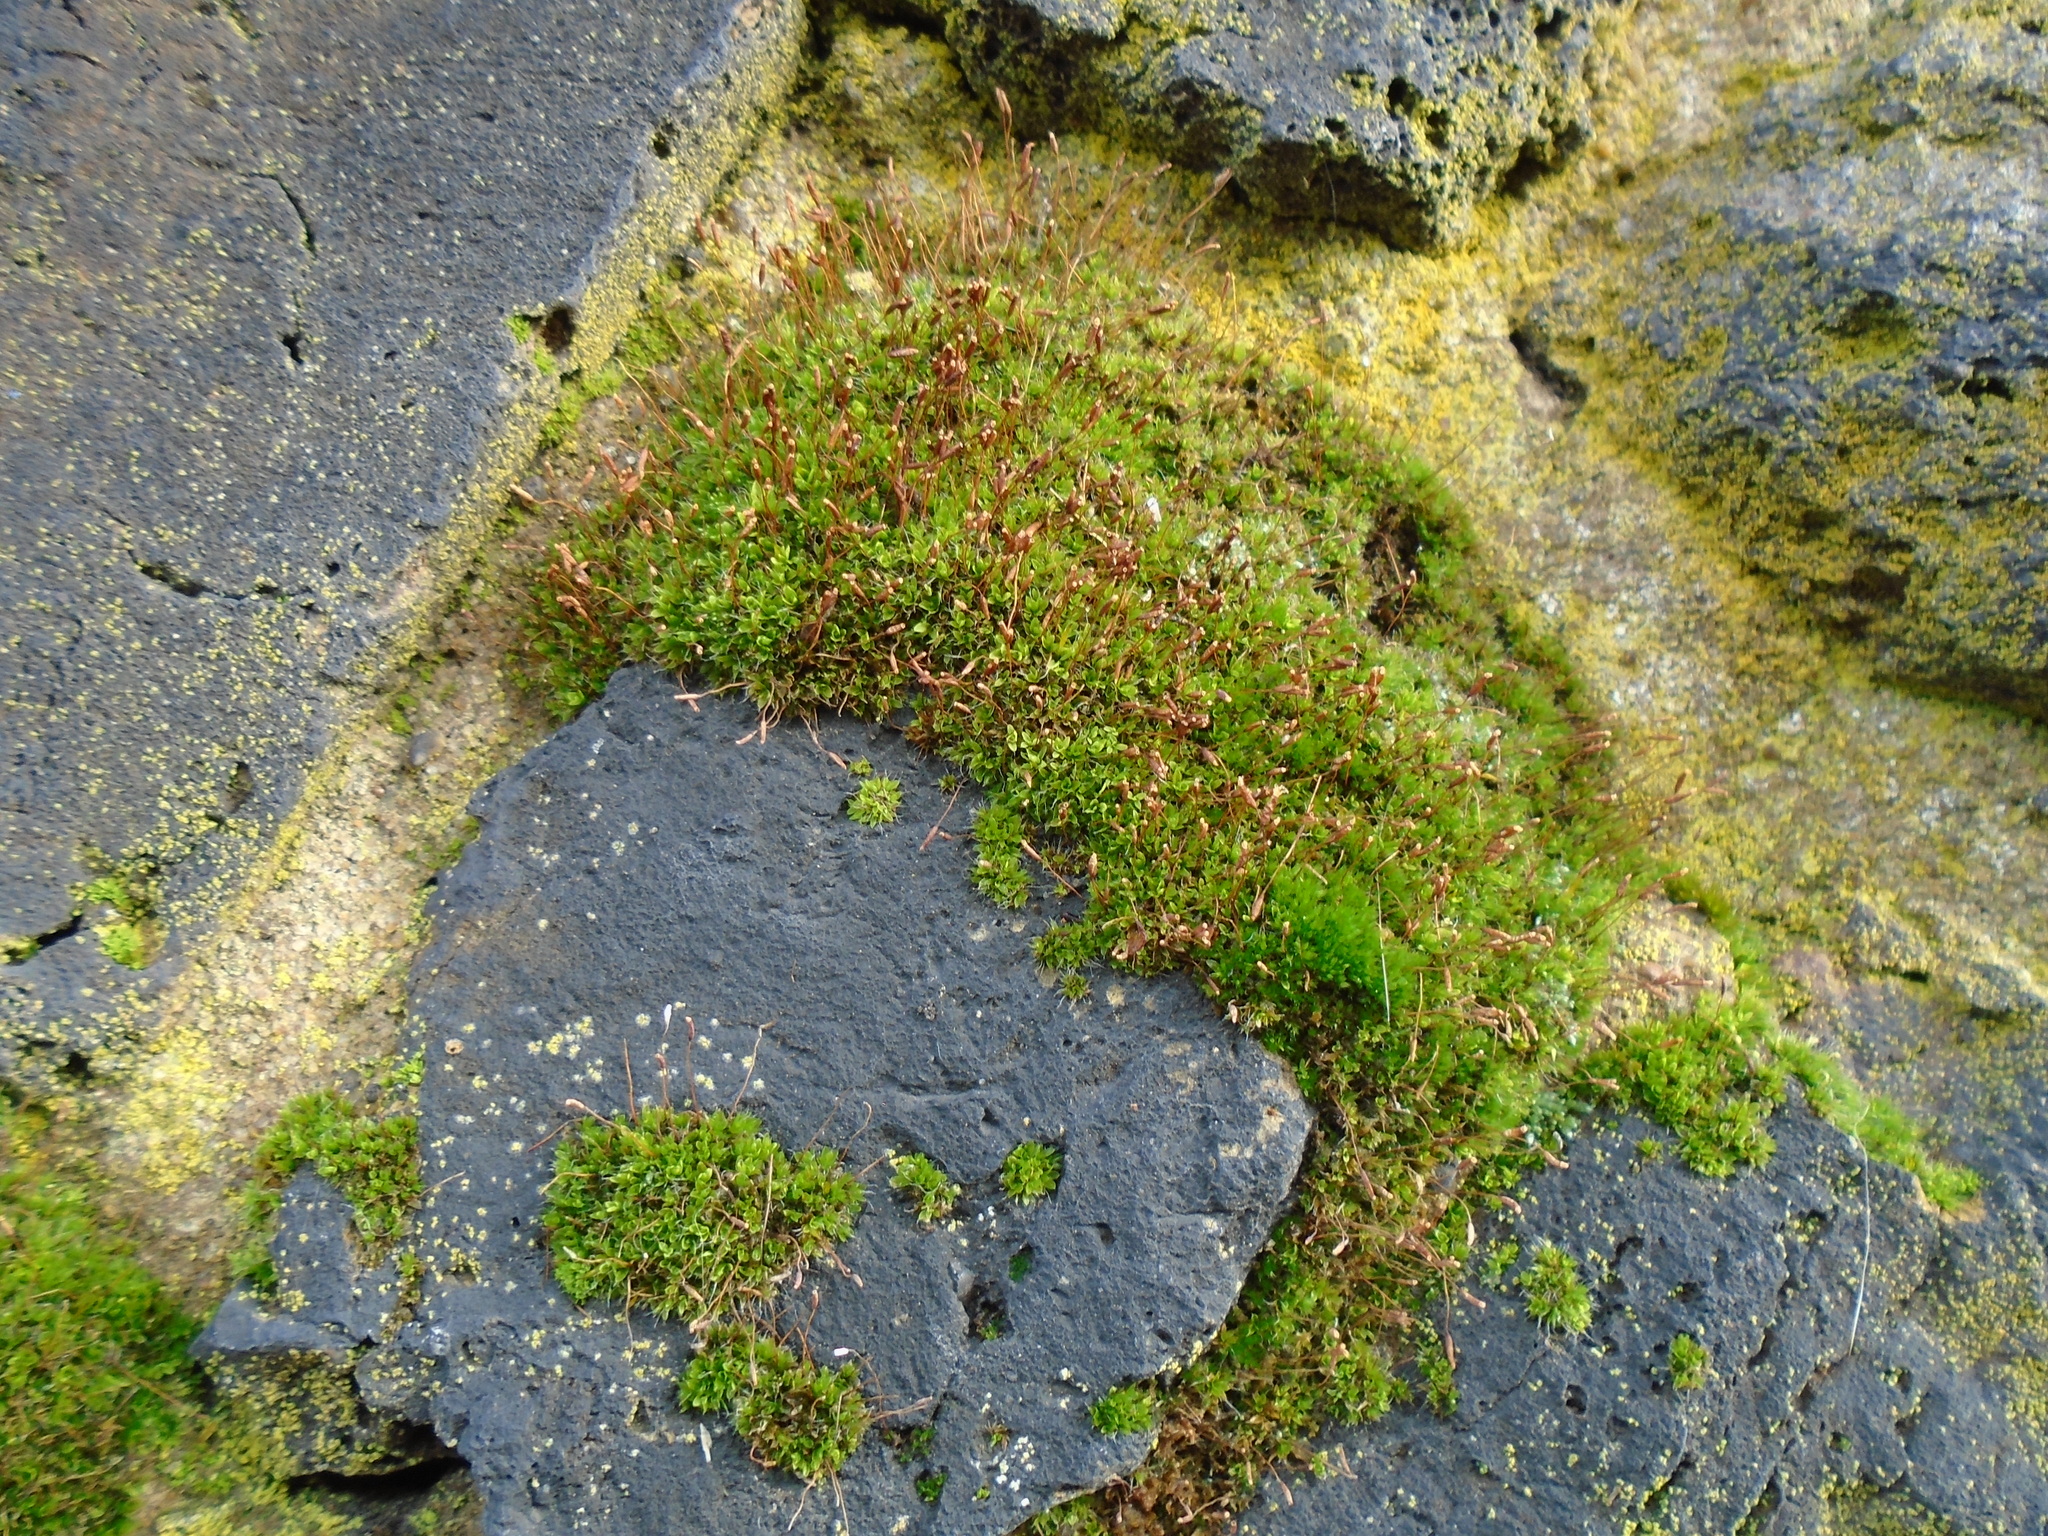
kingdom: Plantae
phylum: Bryophyta
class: Bryopsida
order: Pottiales
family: Pottiaceae
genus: Tortula
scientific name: Tortula muralis
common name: Wall screw-moss
